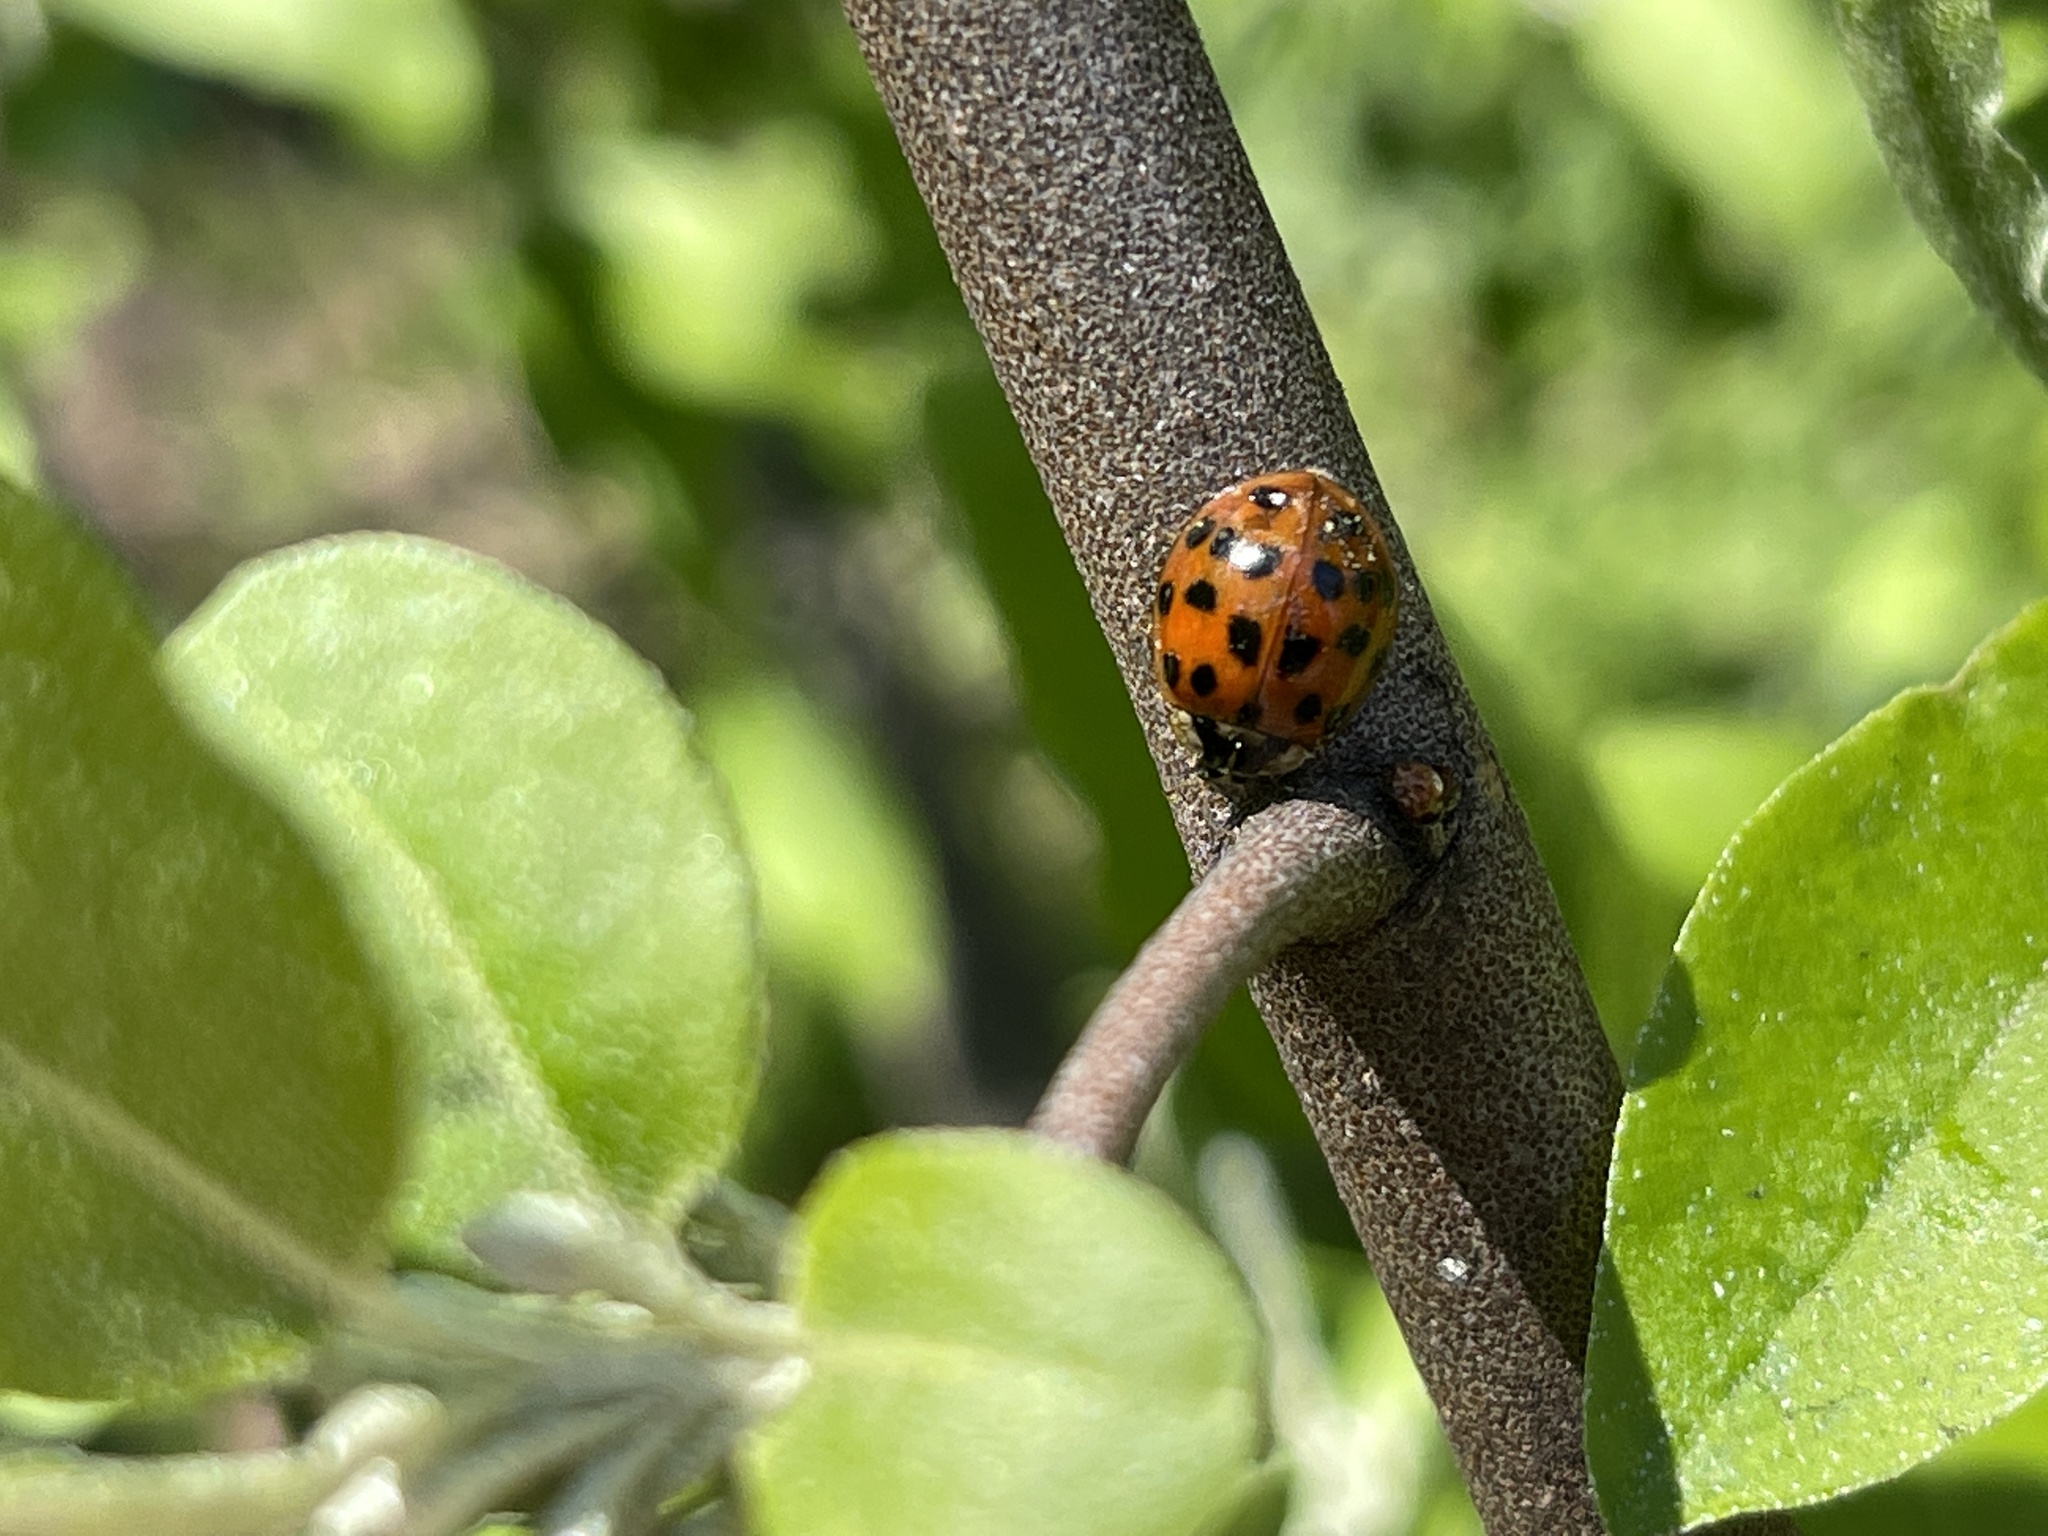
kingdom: Animalia
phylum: Arthropoda
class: Insecta
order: Coleoptera
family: Coccinellidae
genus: Harmonia
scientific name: Harmonia axyridis
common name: Harlequin ladybird
